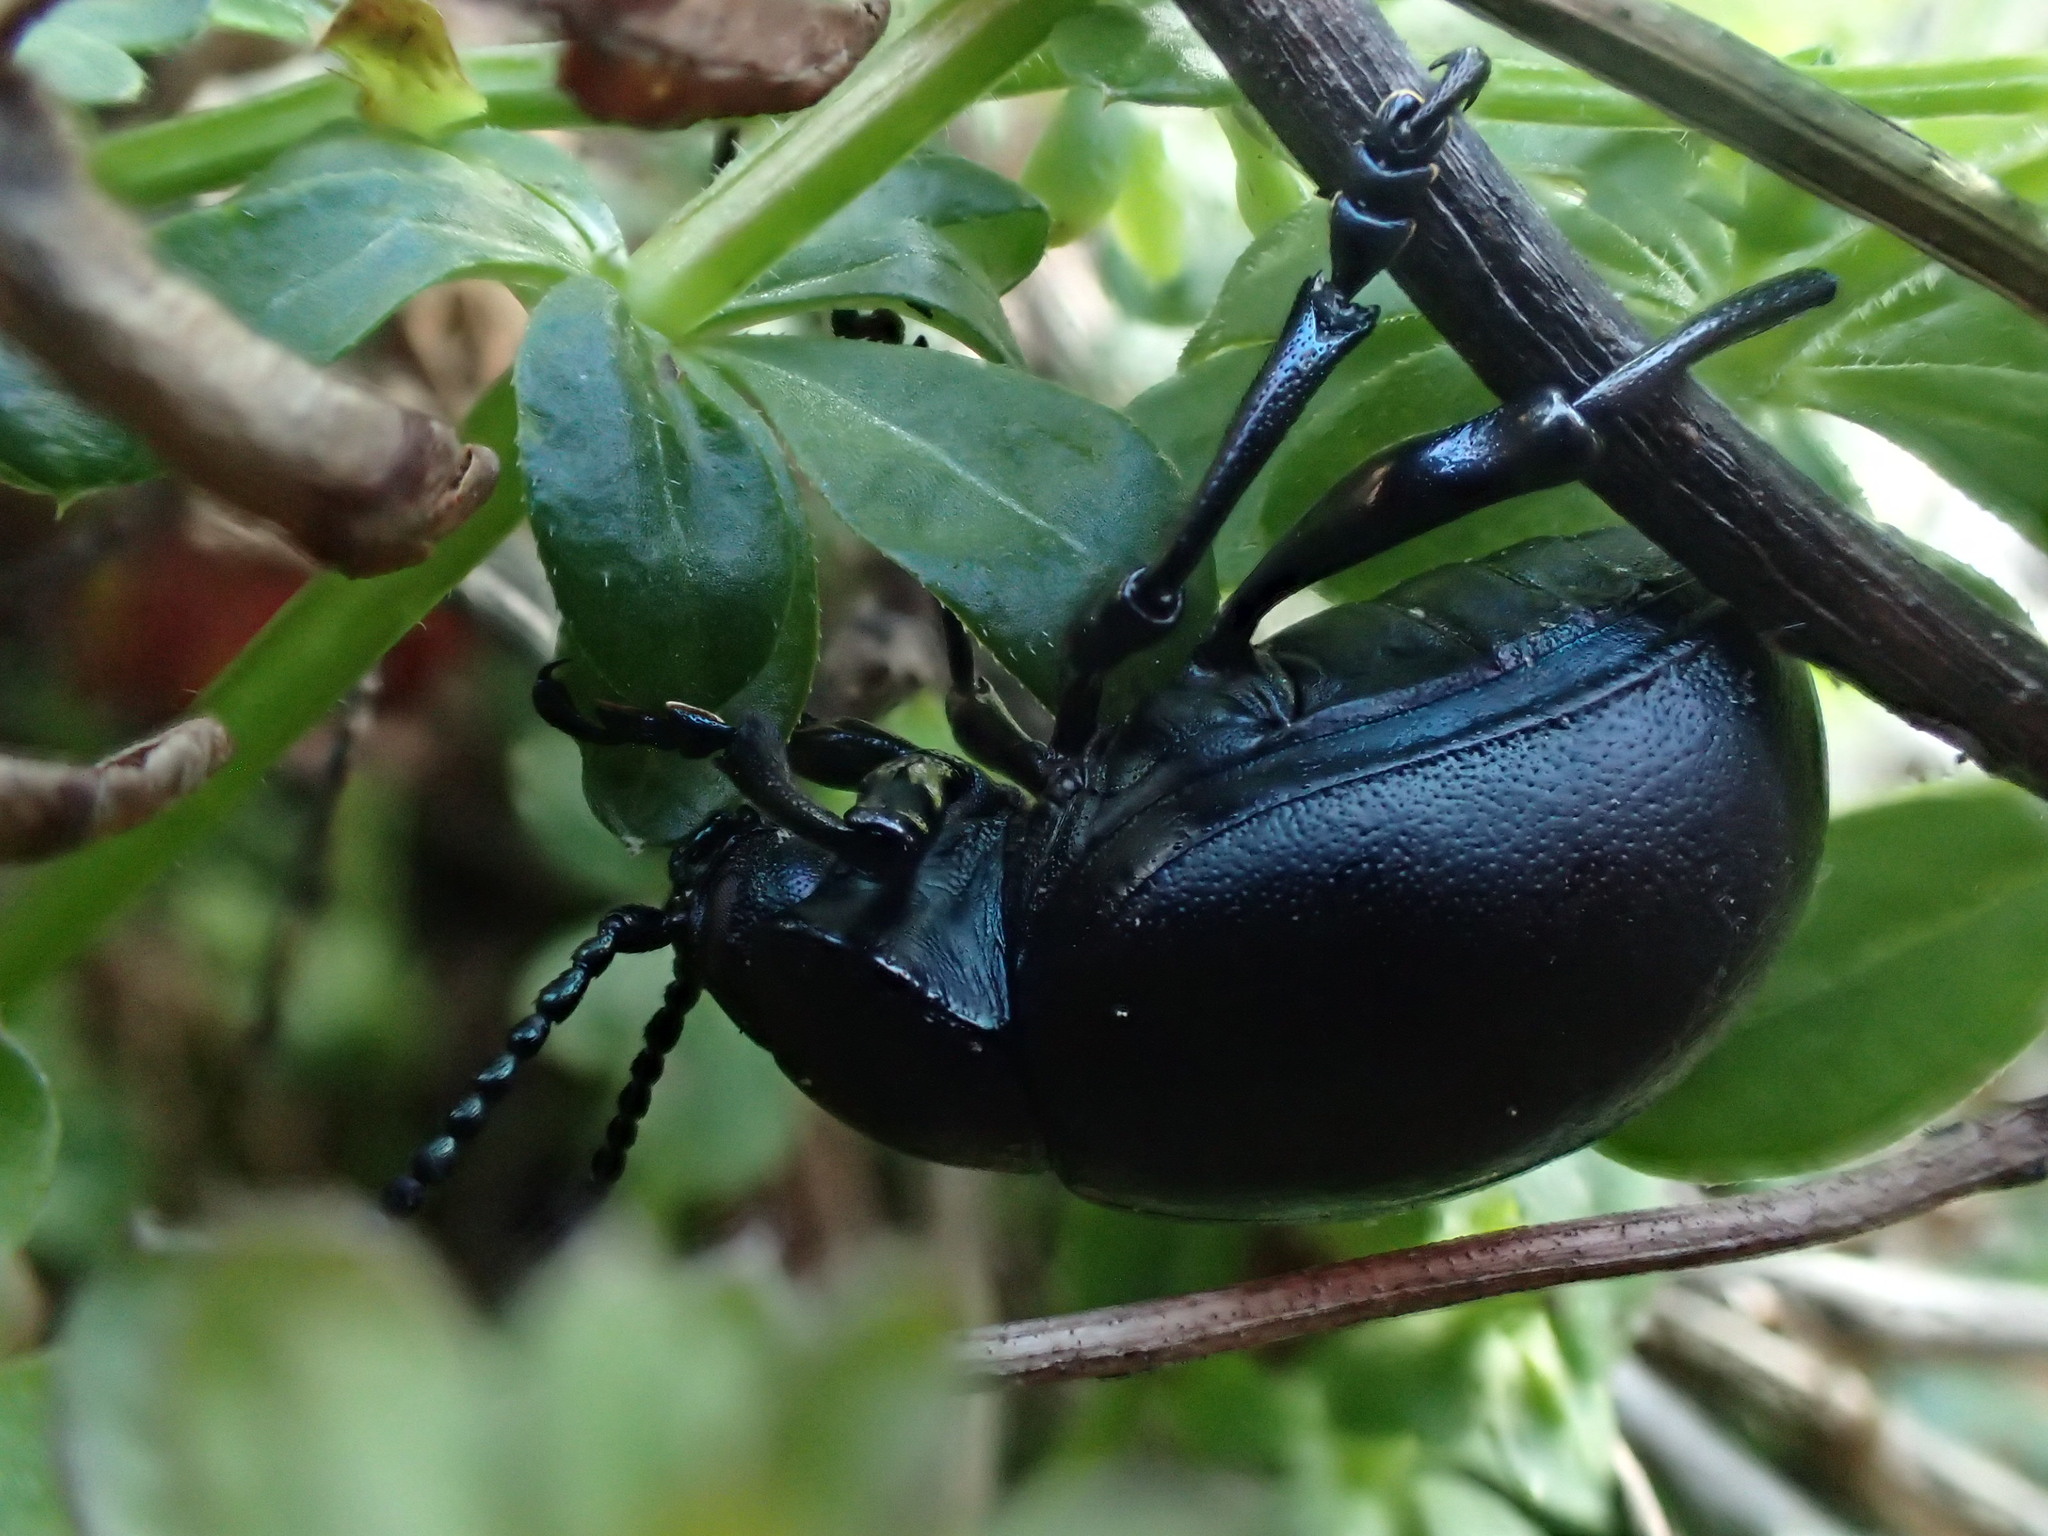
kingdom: Animalia
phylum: Arthropoda
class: Insecta
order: Coleoptera
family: Chrysomelidae
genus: Timarcha
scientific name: Timarcha tenebricosa
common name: Bloody-nosed beetle
